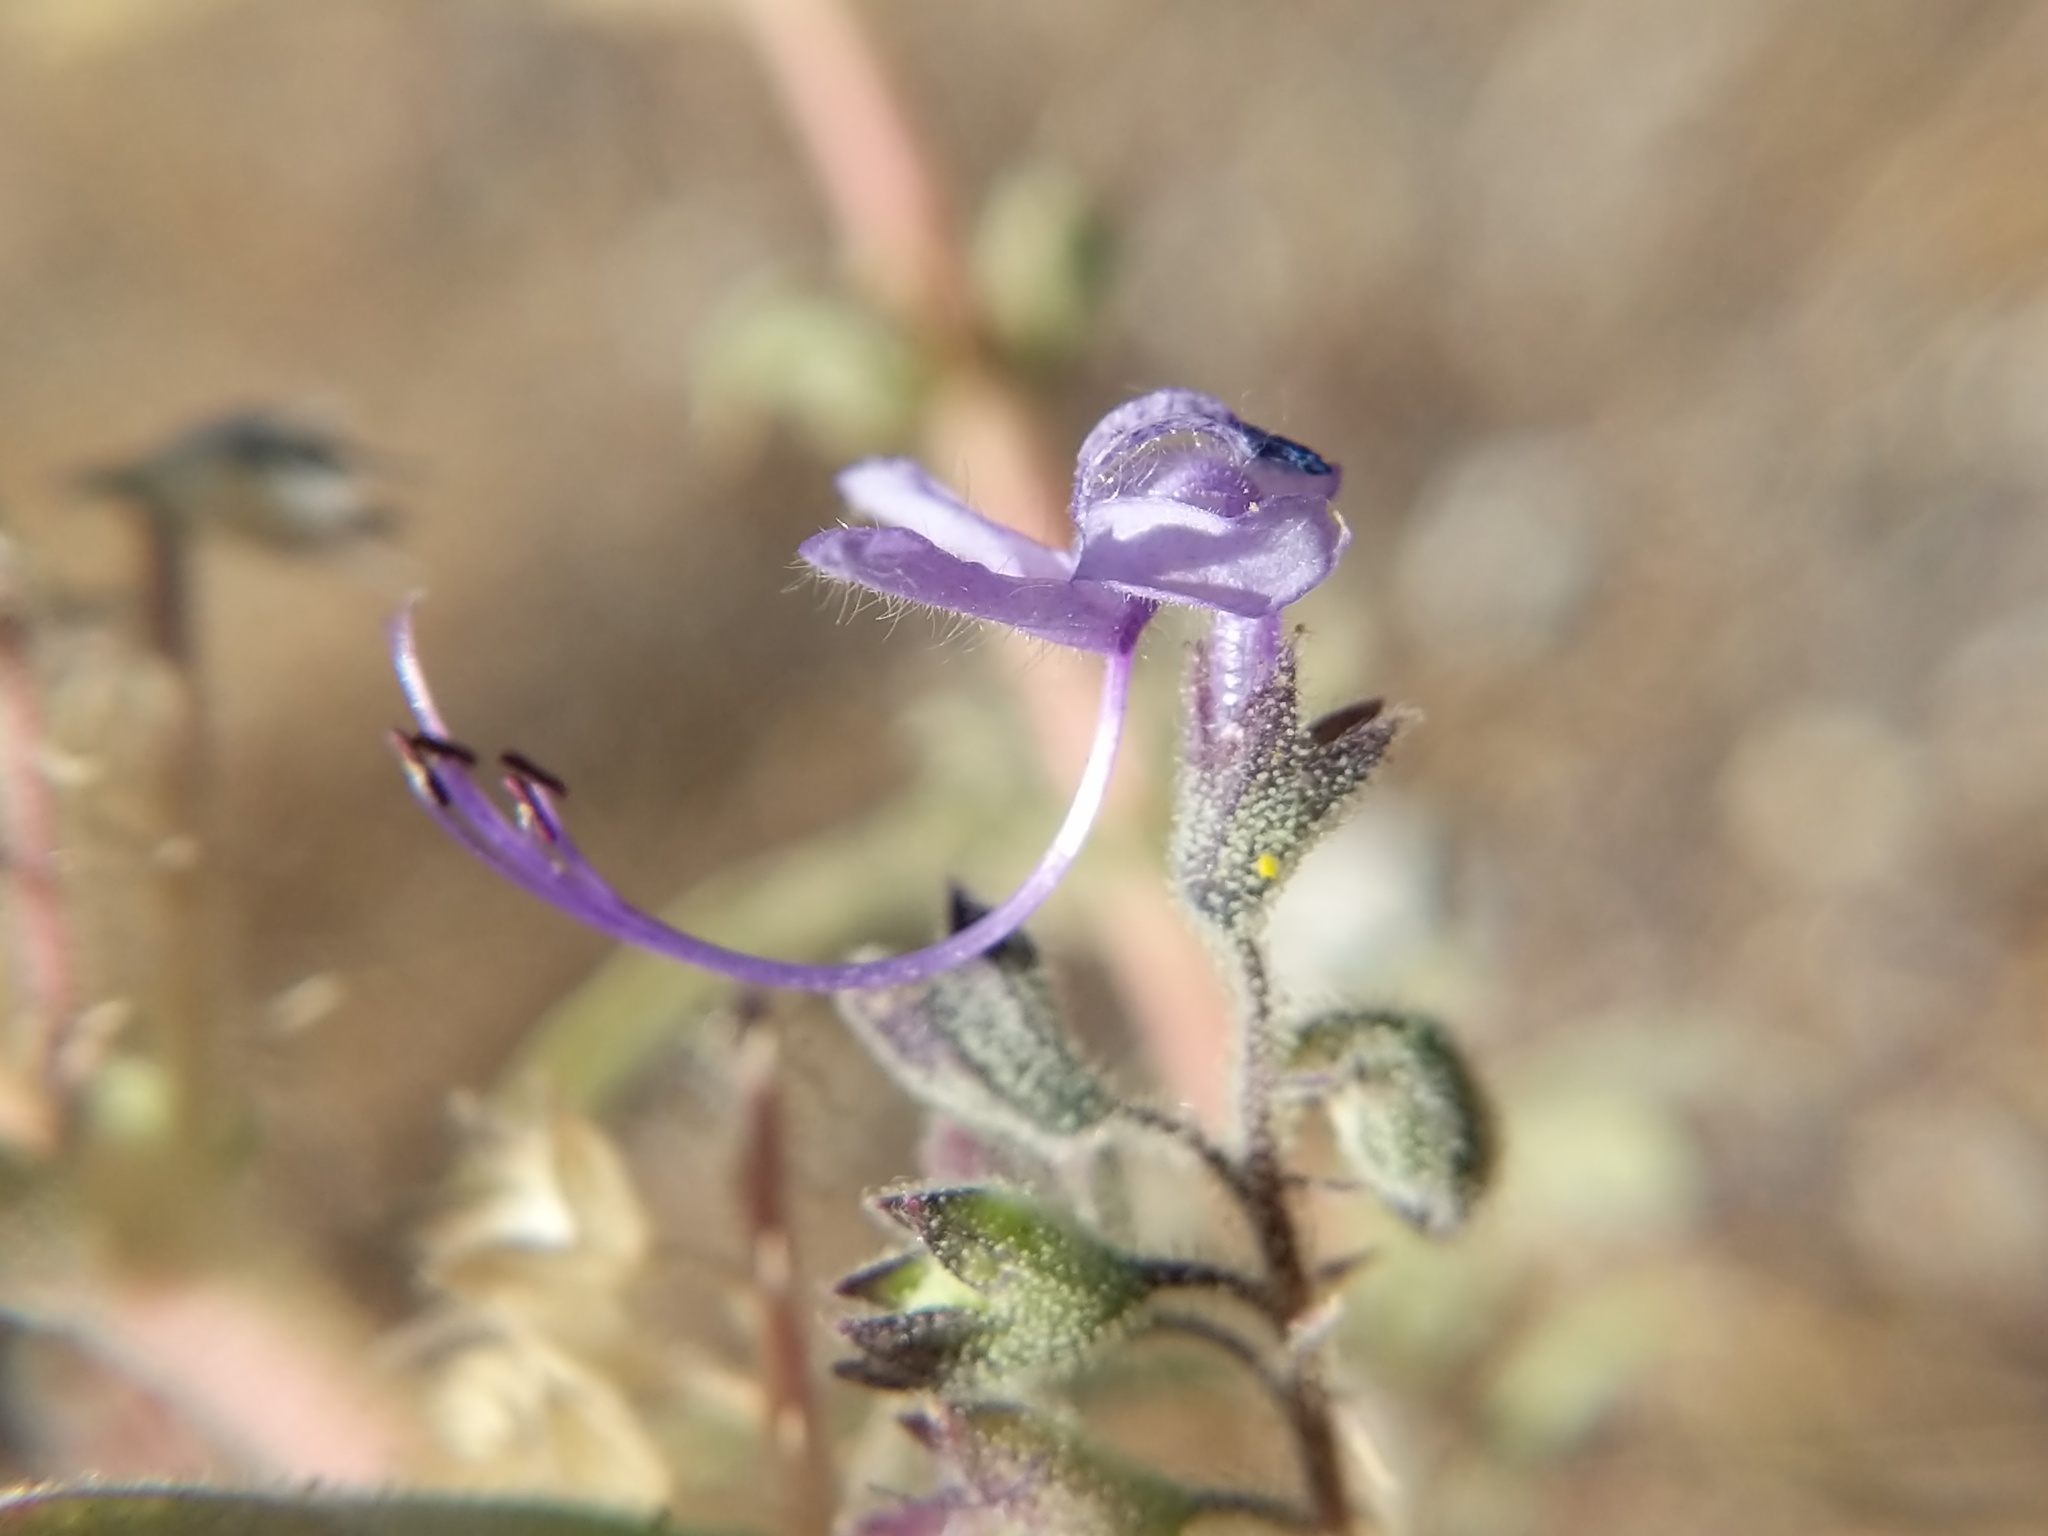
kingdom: Plantae
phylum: Tracheophyta
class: Magnoliopsida
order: Lamiales
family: Lamiaceae
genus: Trichostema
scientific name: Trichostema lanceolatum
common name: Vinegar-weed
